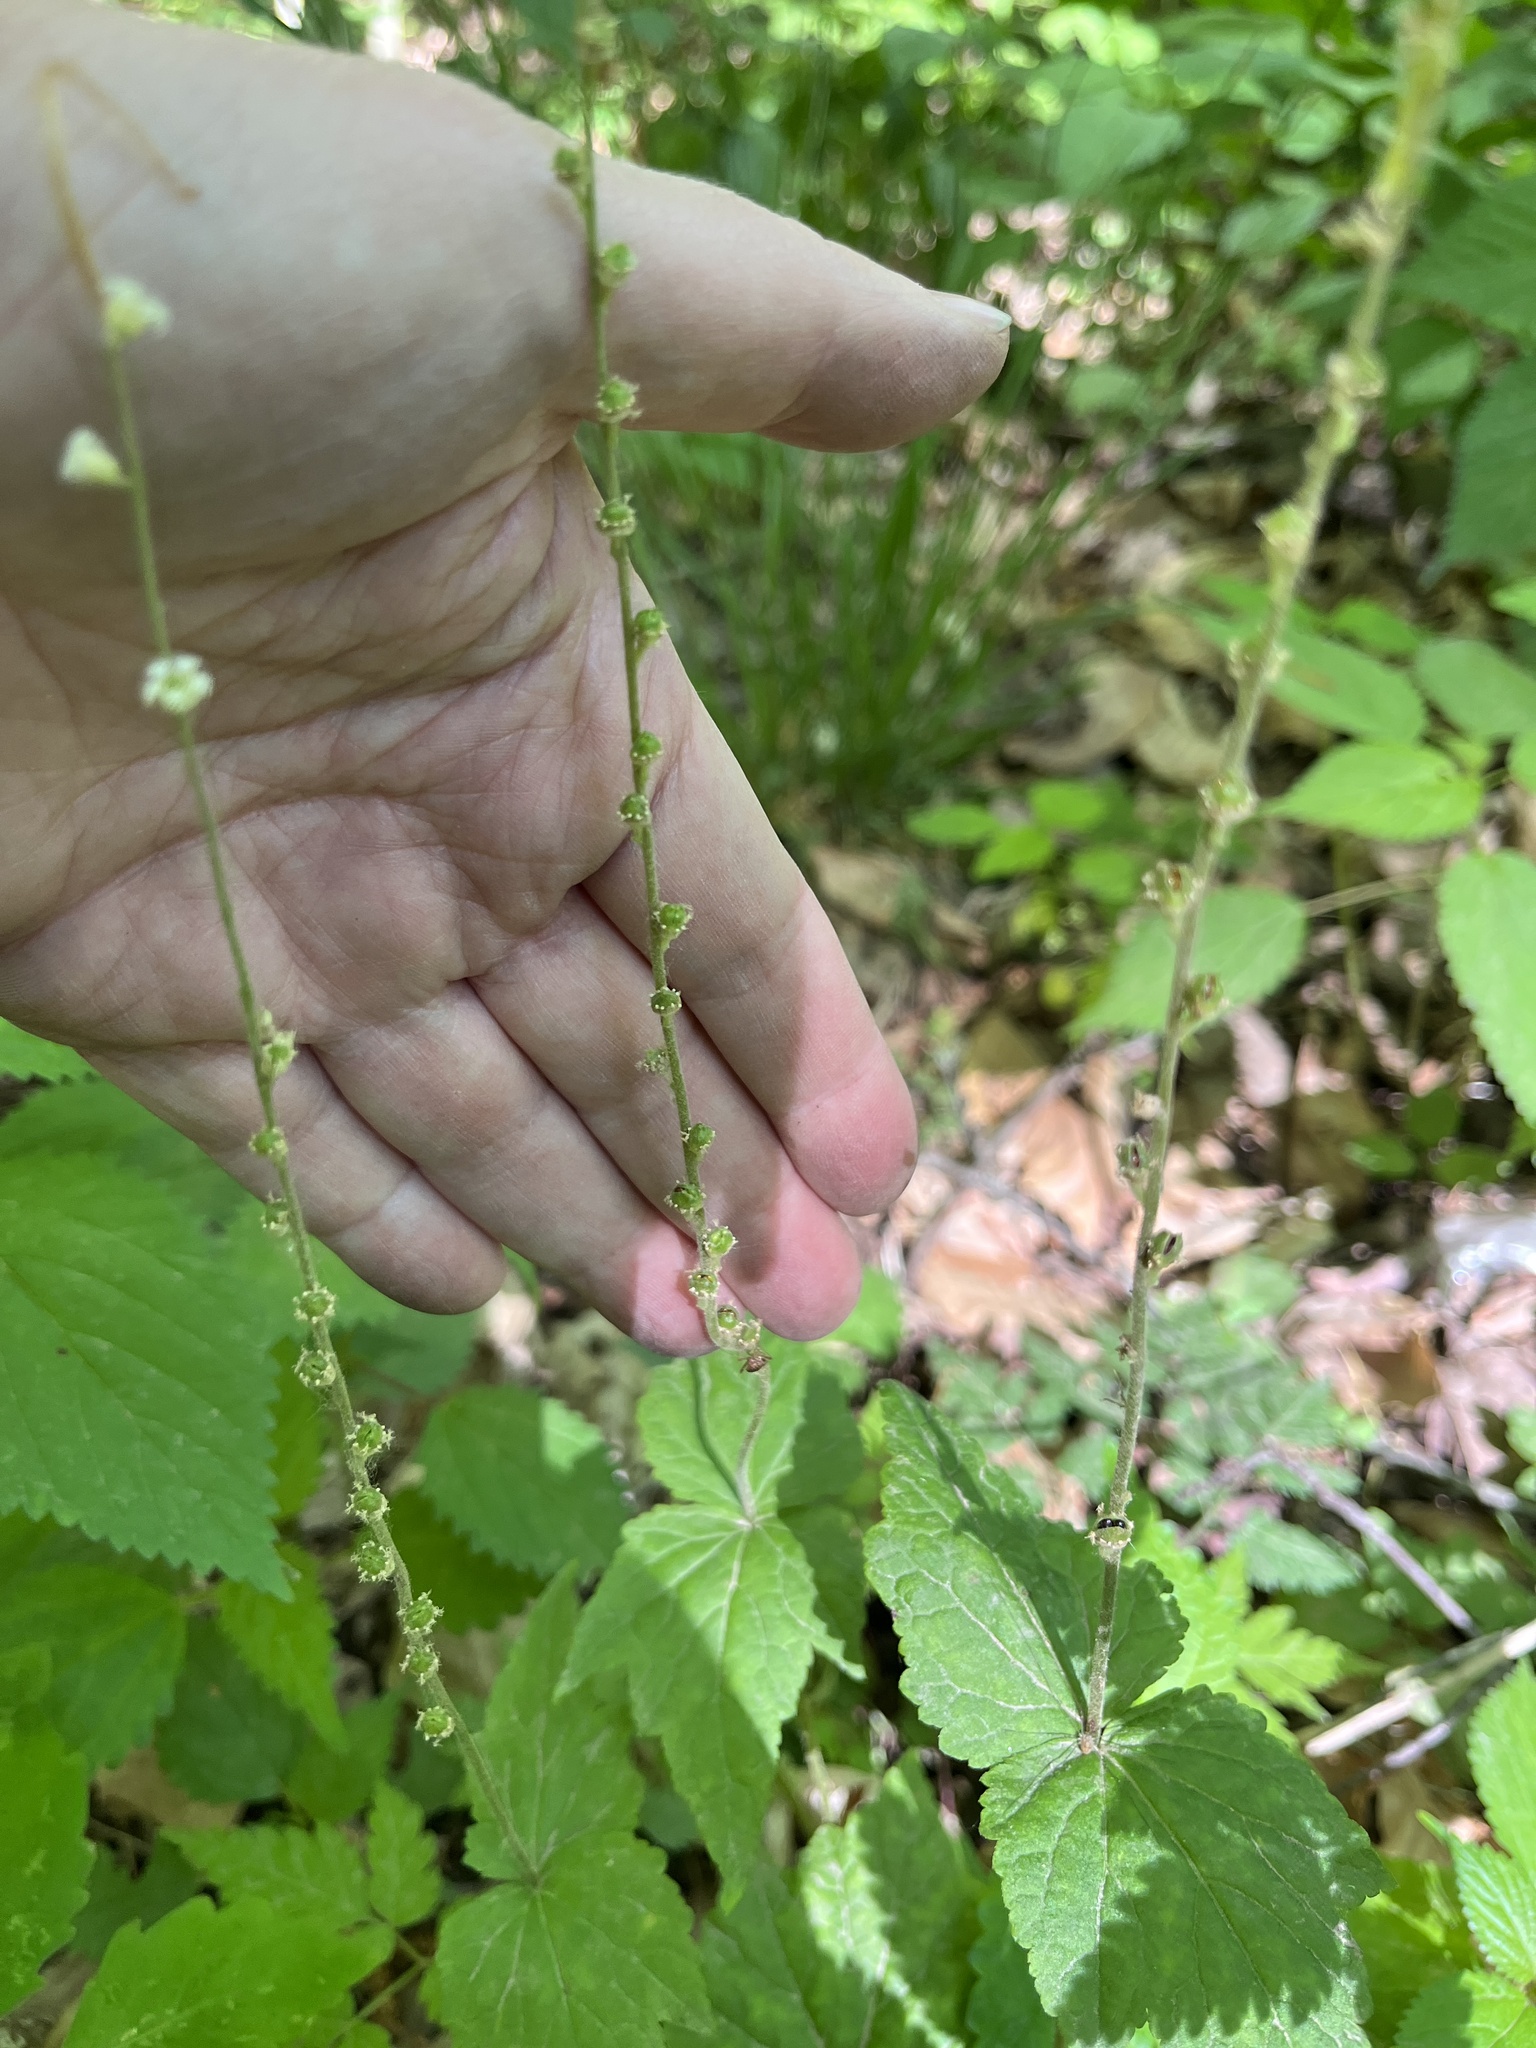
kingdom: Plantae
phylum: Tracheophyta
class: Magnoliopsida
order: Saxifragales
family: Saxifragaceae
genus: Mitella
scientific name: Mitella diphylla
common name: Coolwort
